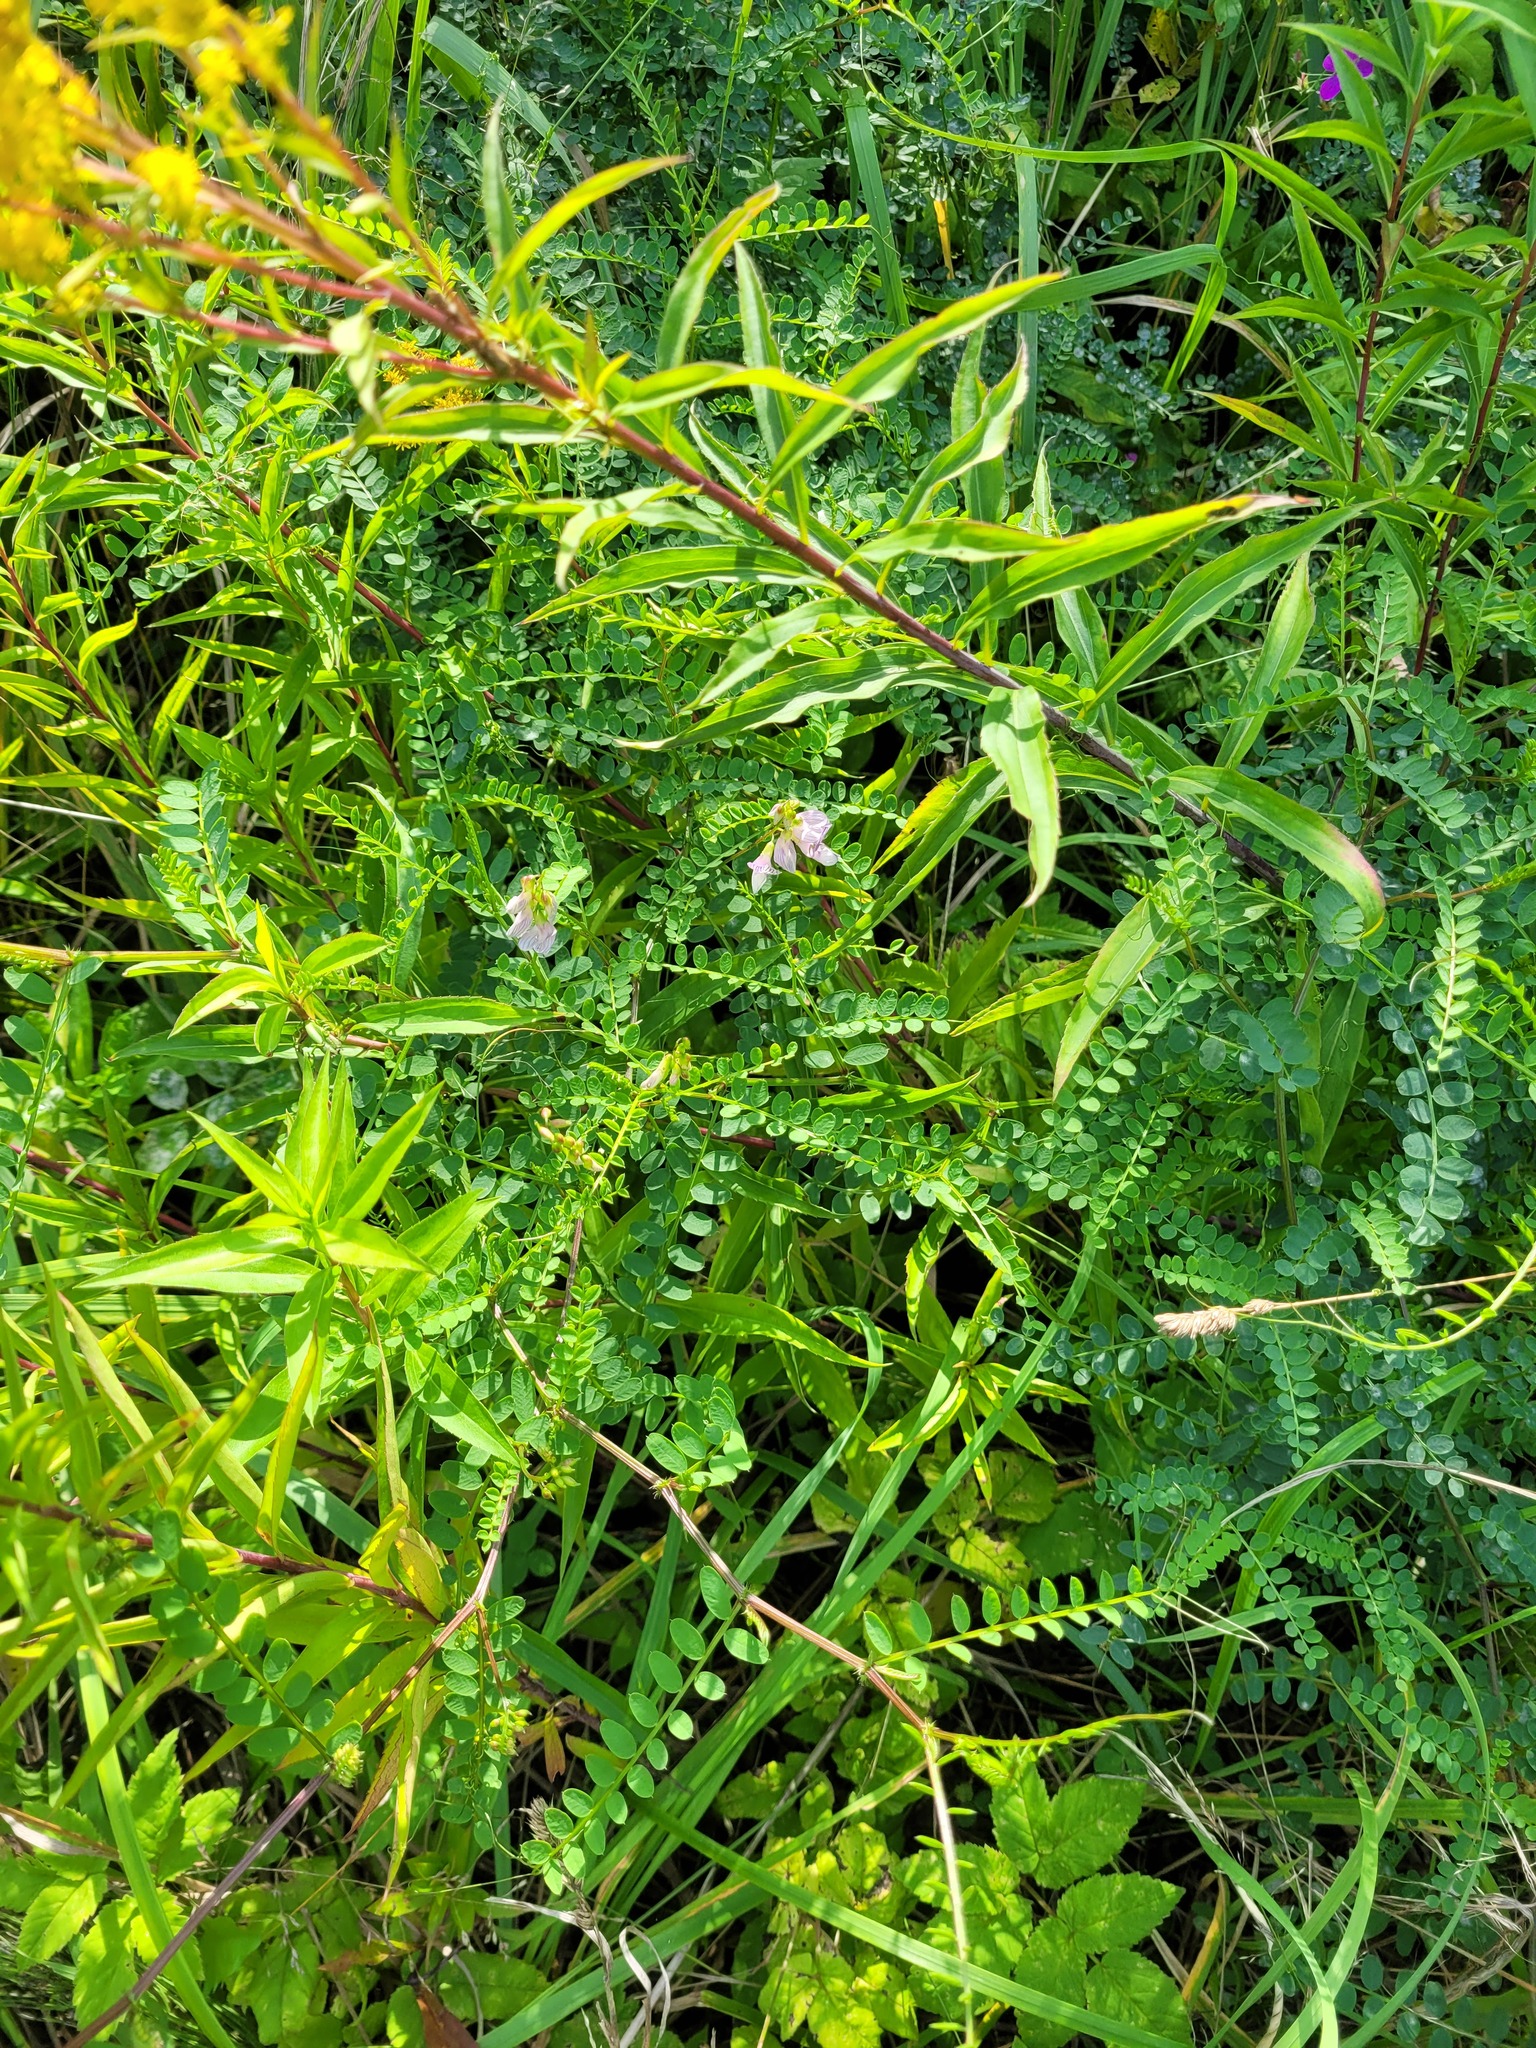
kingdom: Plantae
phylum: Tracheophyta
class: Magnoliopsida
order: Fabales
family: Fabaceae
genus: Vicia
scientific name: Vicia sylvatica
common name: Wood vetch
